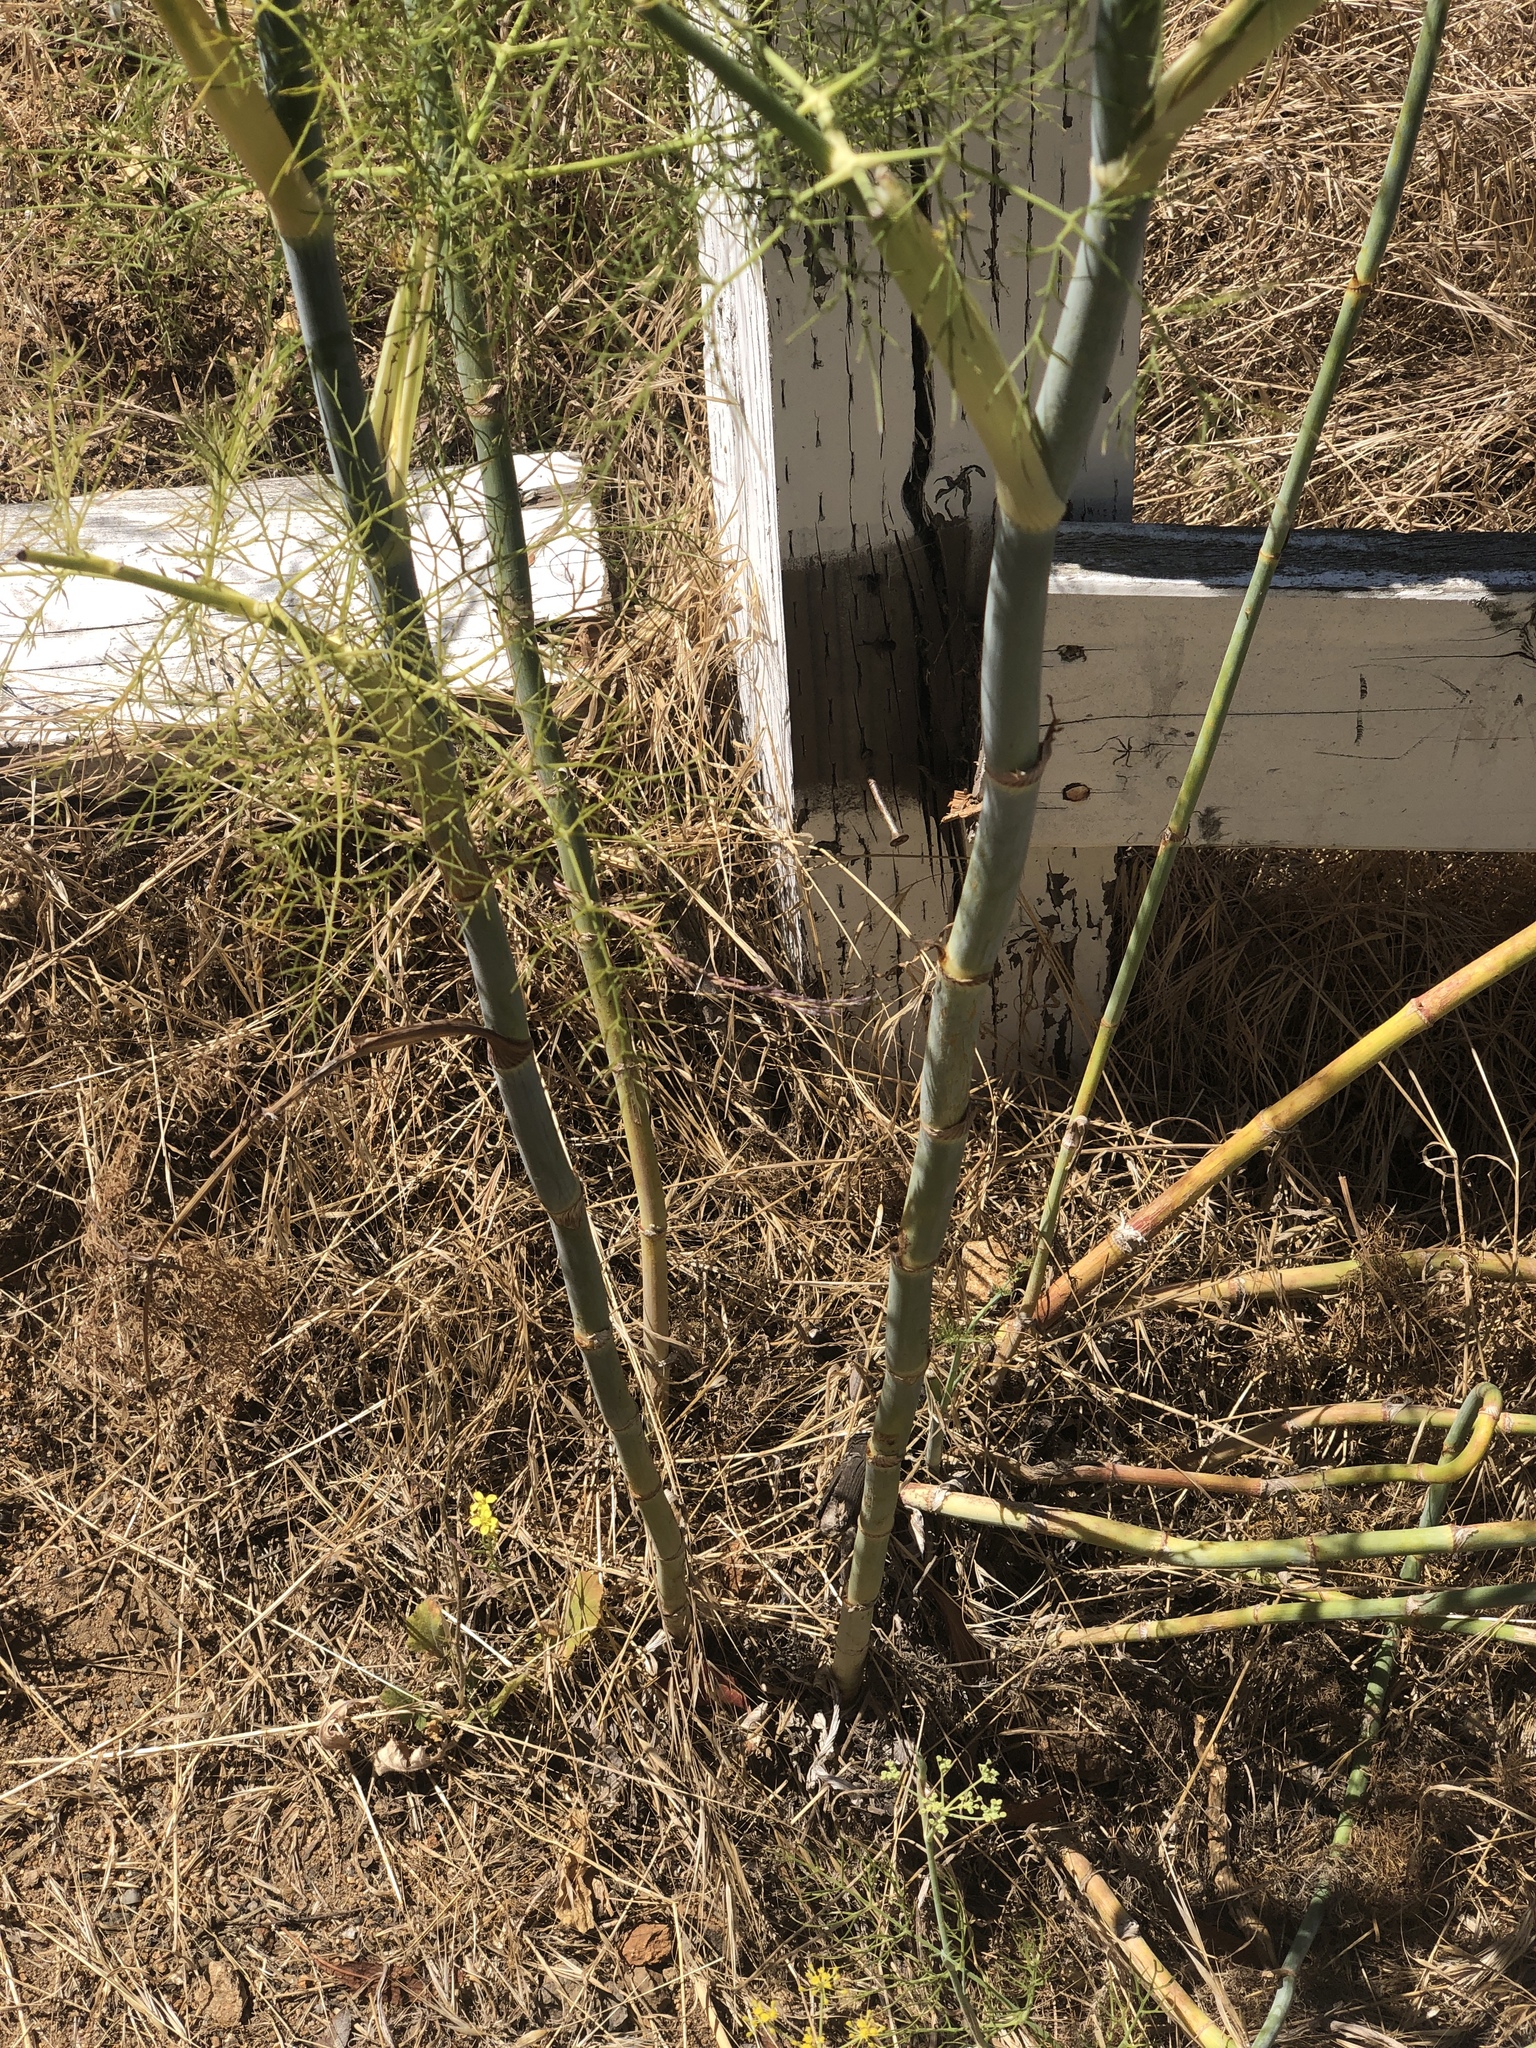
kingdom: Plantae
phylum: Tracheophyta
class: Magnoliopsida
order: Apiales
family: Apiaceae
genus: Foeniculum
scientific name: Foeniculum vulgare
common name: Fennel
